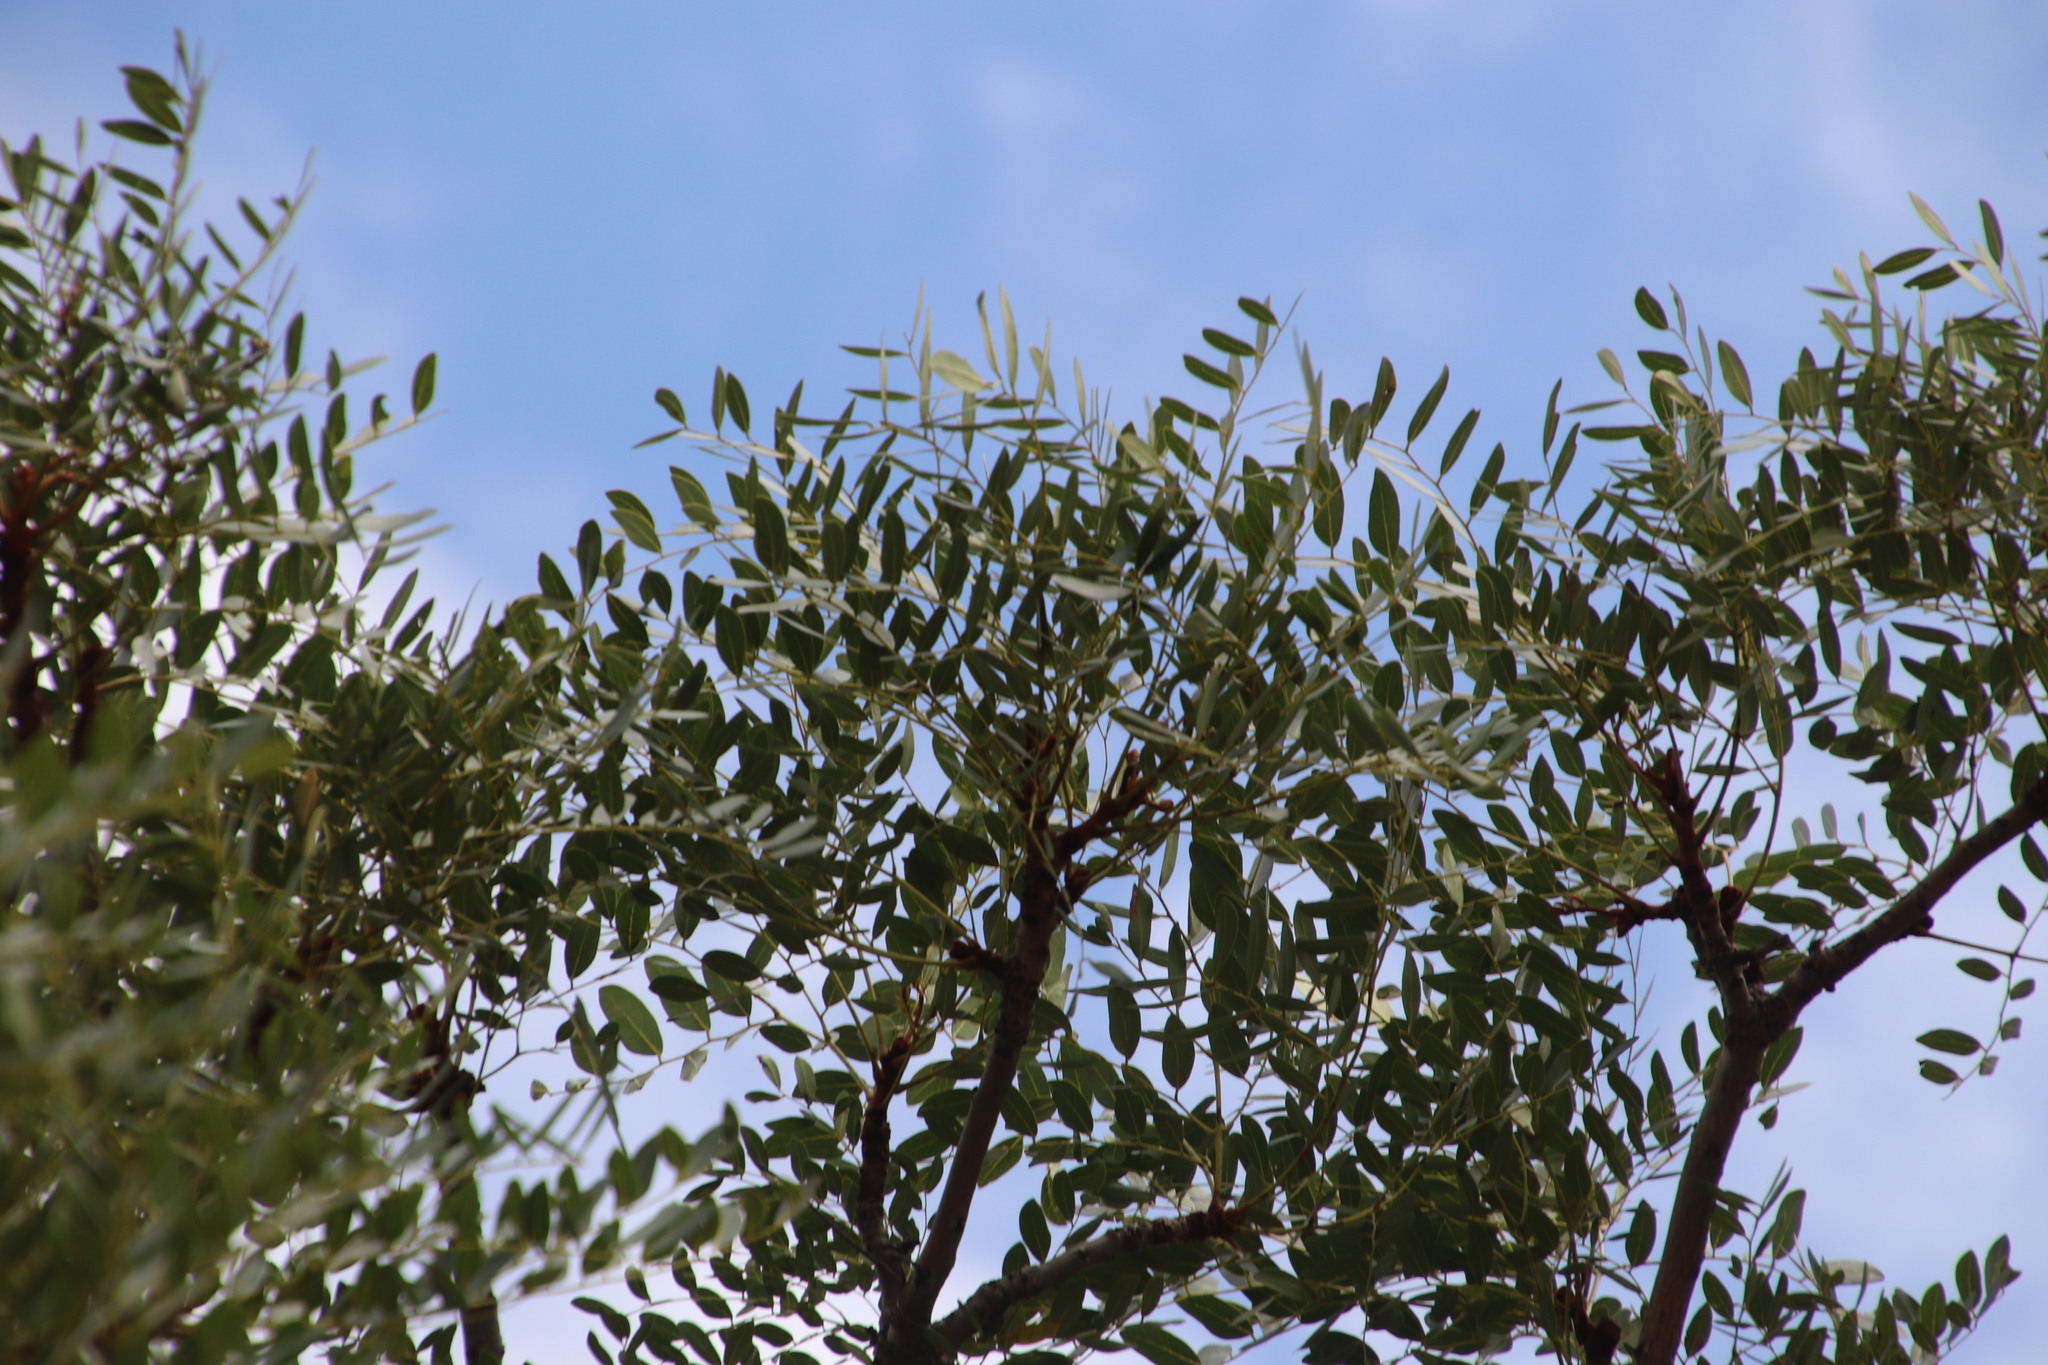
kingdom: Plantae
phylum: Tracheophyta
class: Magnoliopsida
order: Fabales
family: Fabaceae
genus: Burkea
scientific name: Burkea africana
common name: Mkalati tree
